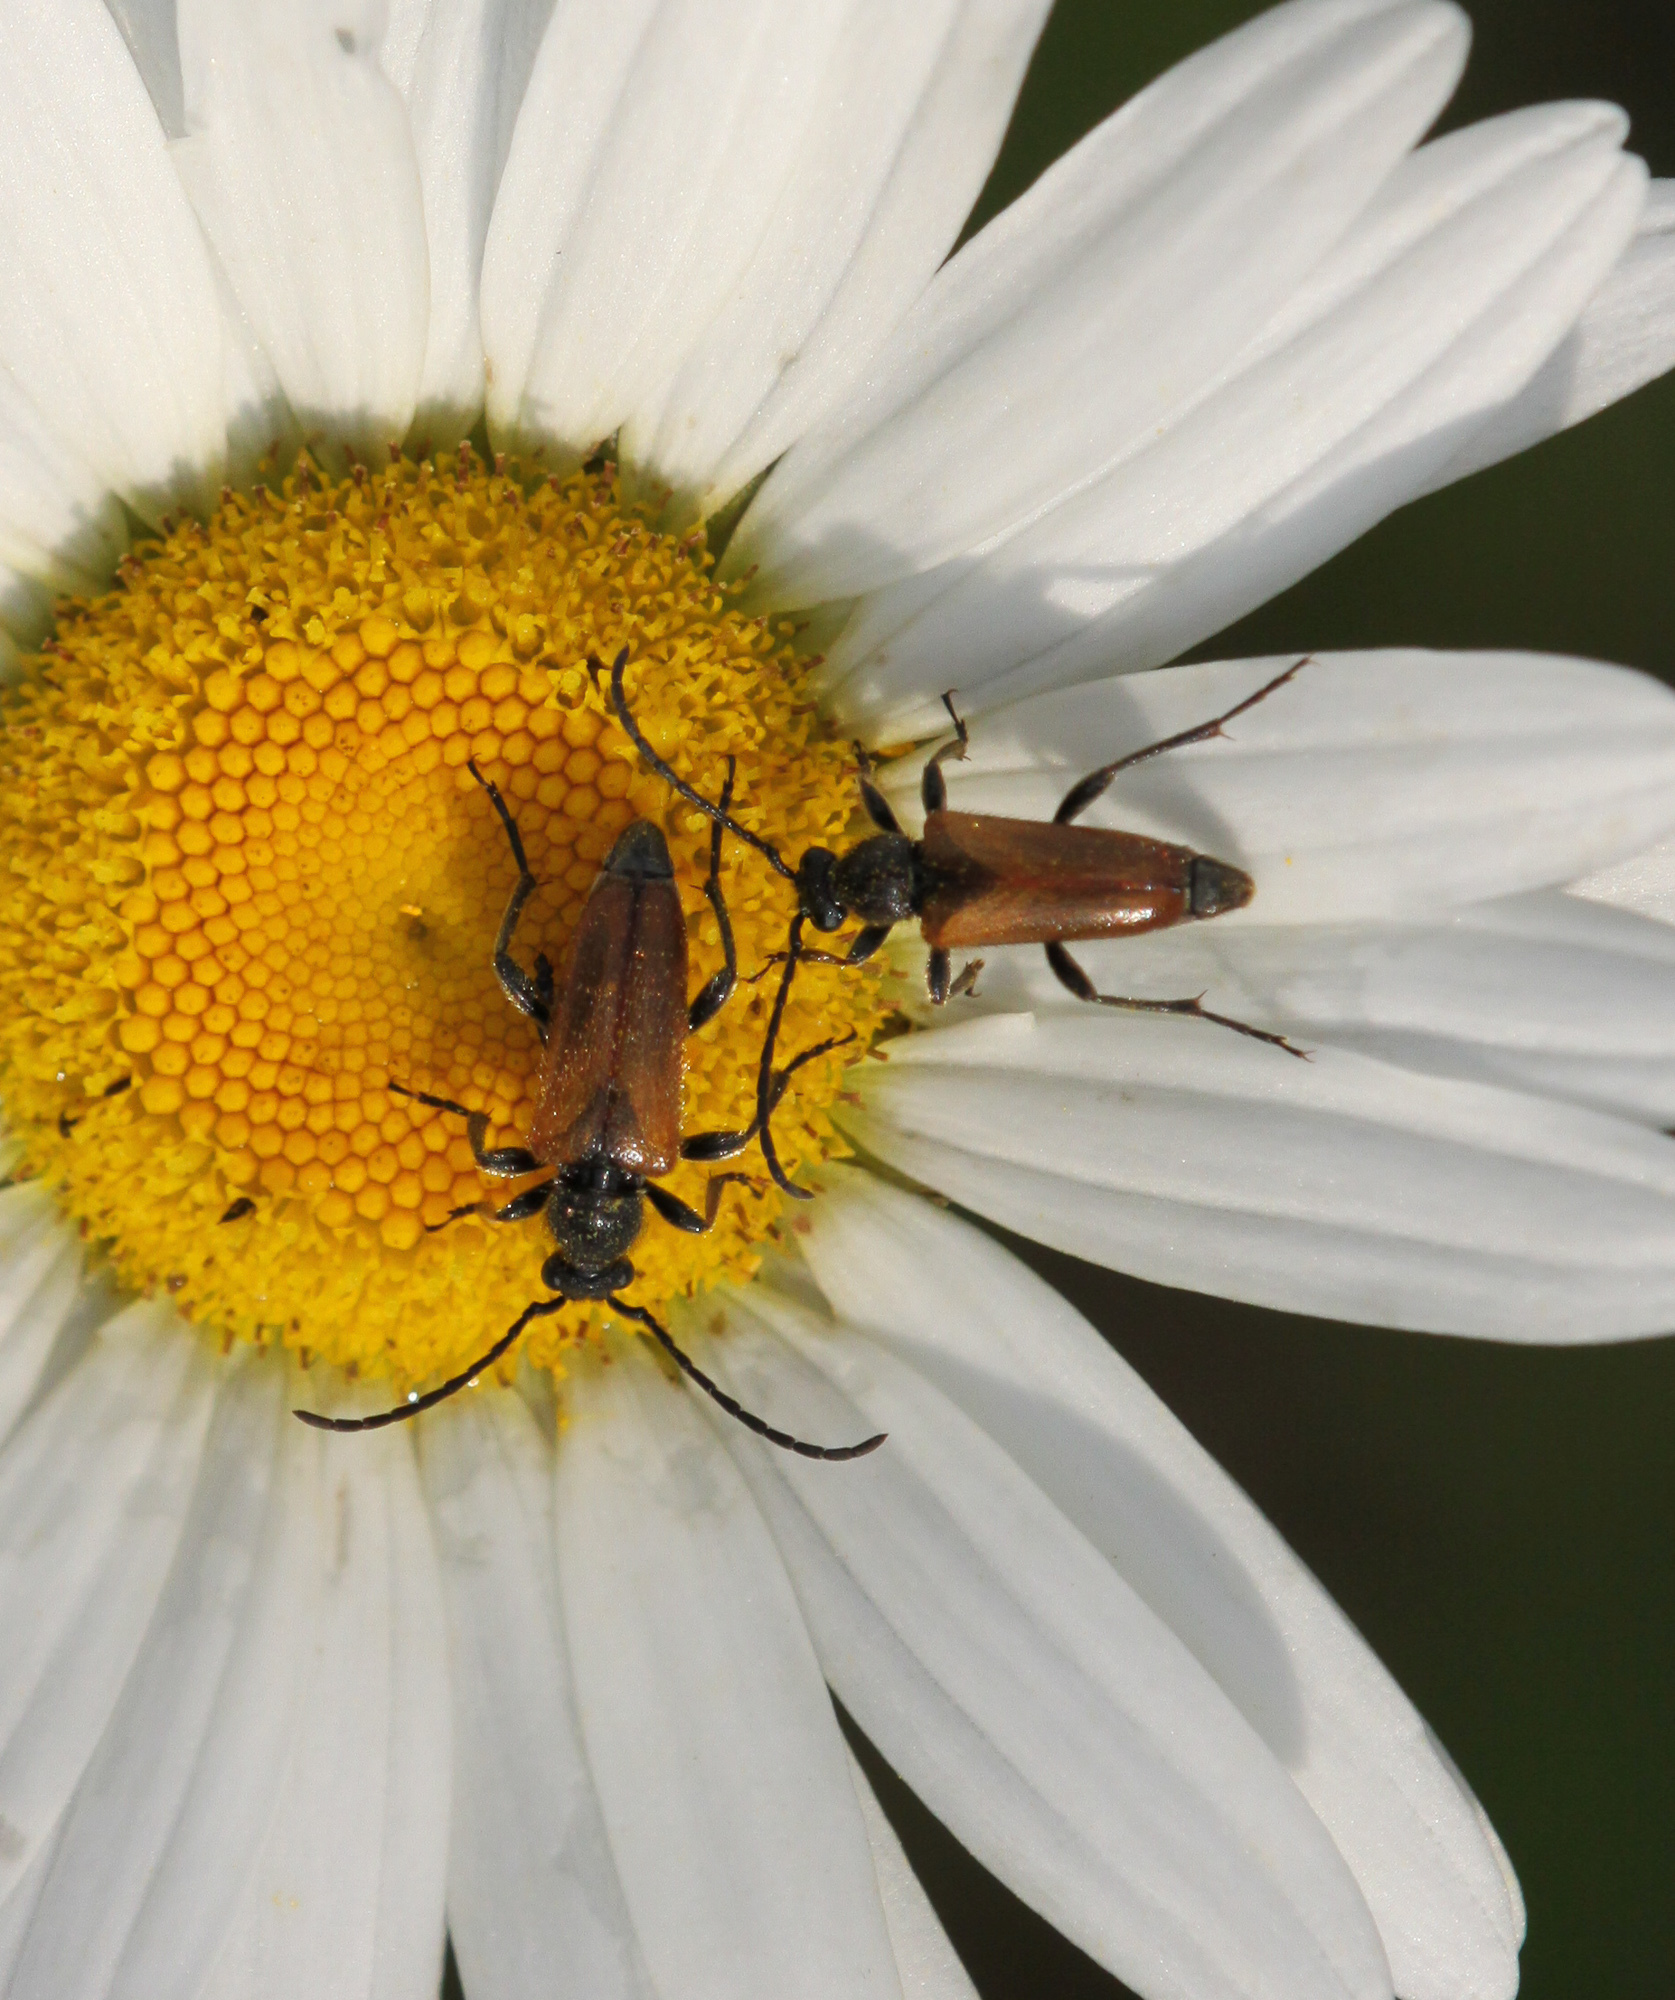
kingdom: Animalia
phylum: Arthropoda
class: Insecta
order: Coleoptera
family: Cerambycidae
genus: Pseudovadonia
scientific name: Pseudovadonia livida
